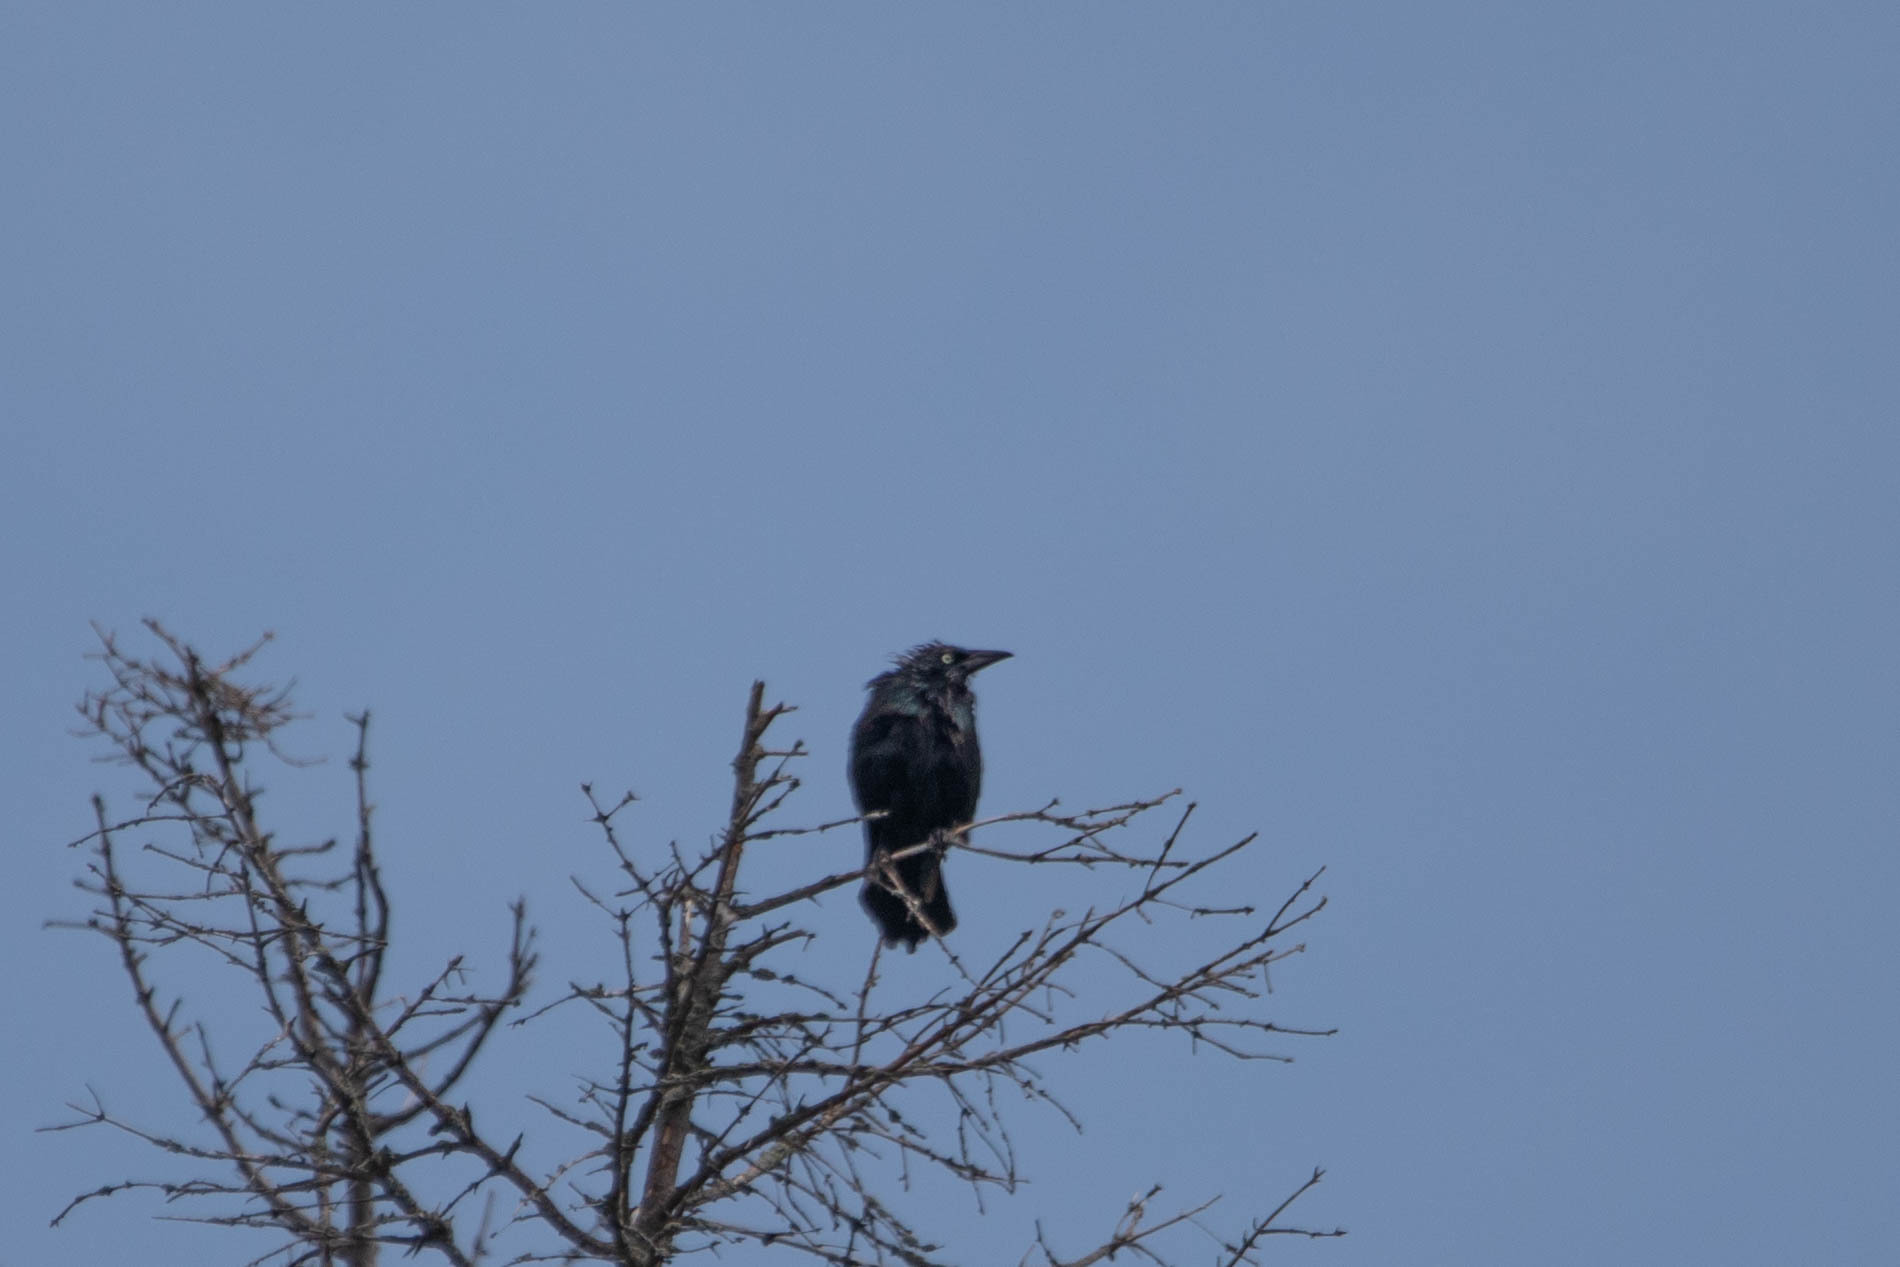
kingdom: Animalia
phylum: Chordata
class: Aves
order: Passeriformes
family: Icteridae
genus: Quiscalus
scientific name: Quiscalus quiscula
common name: Common grackle
